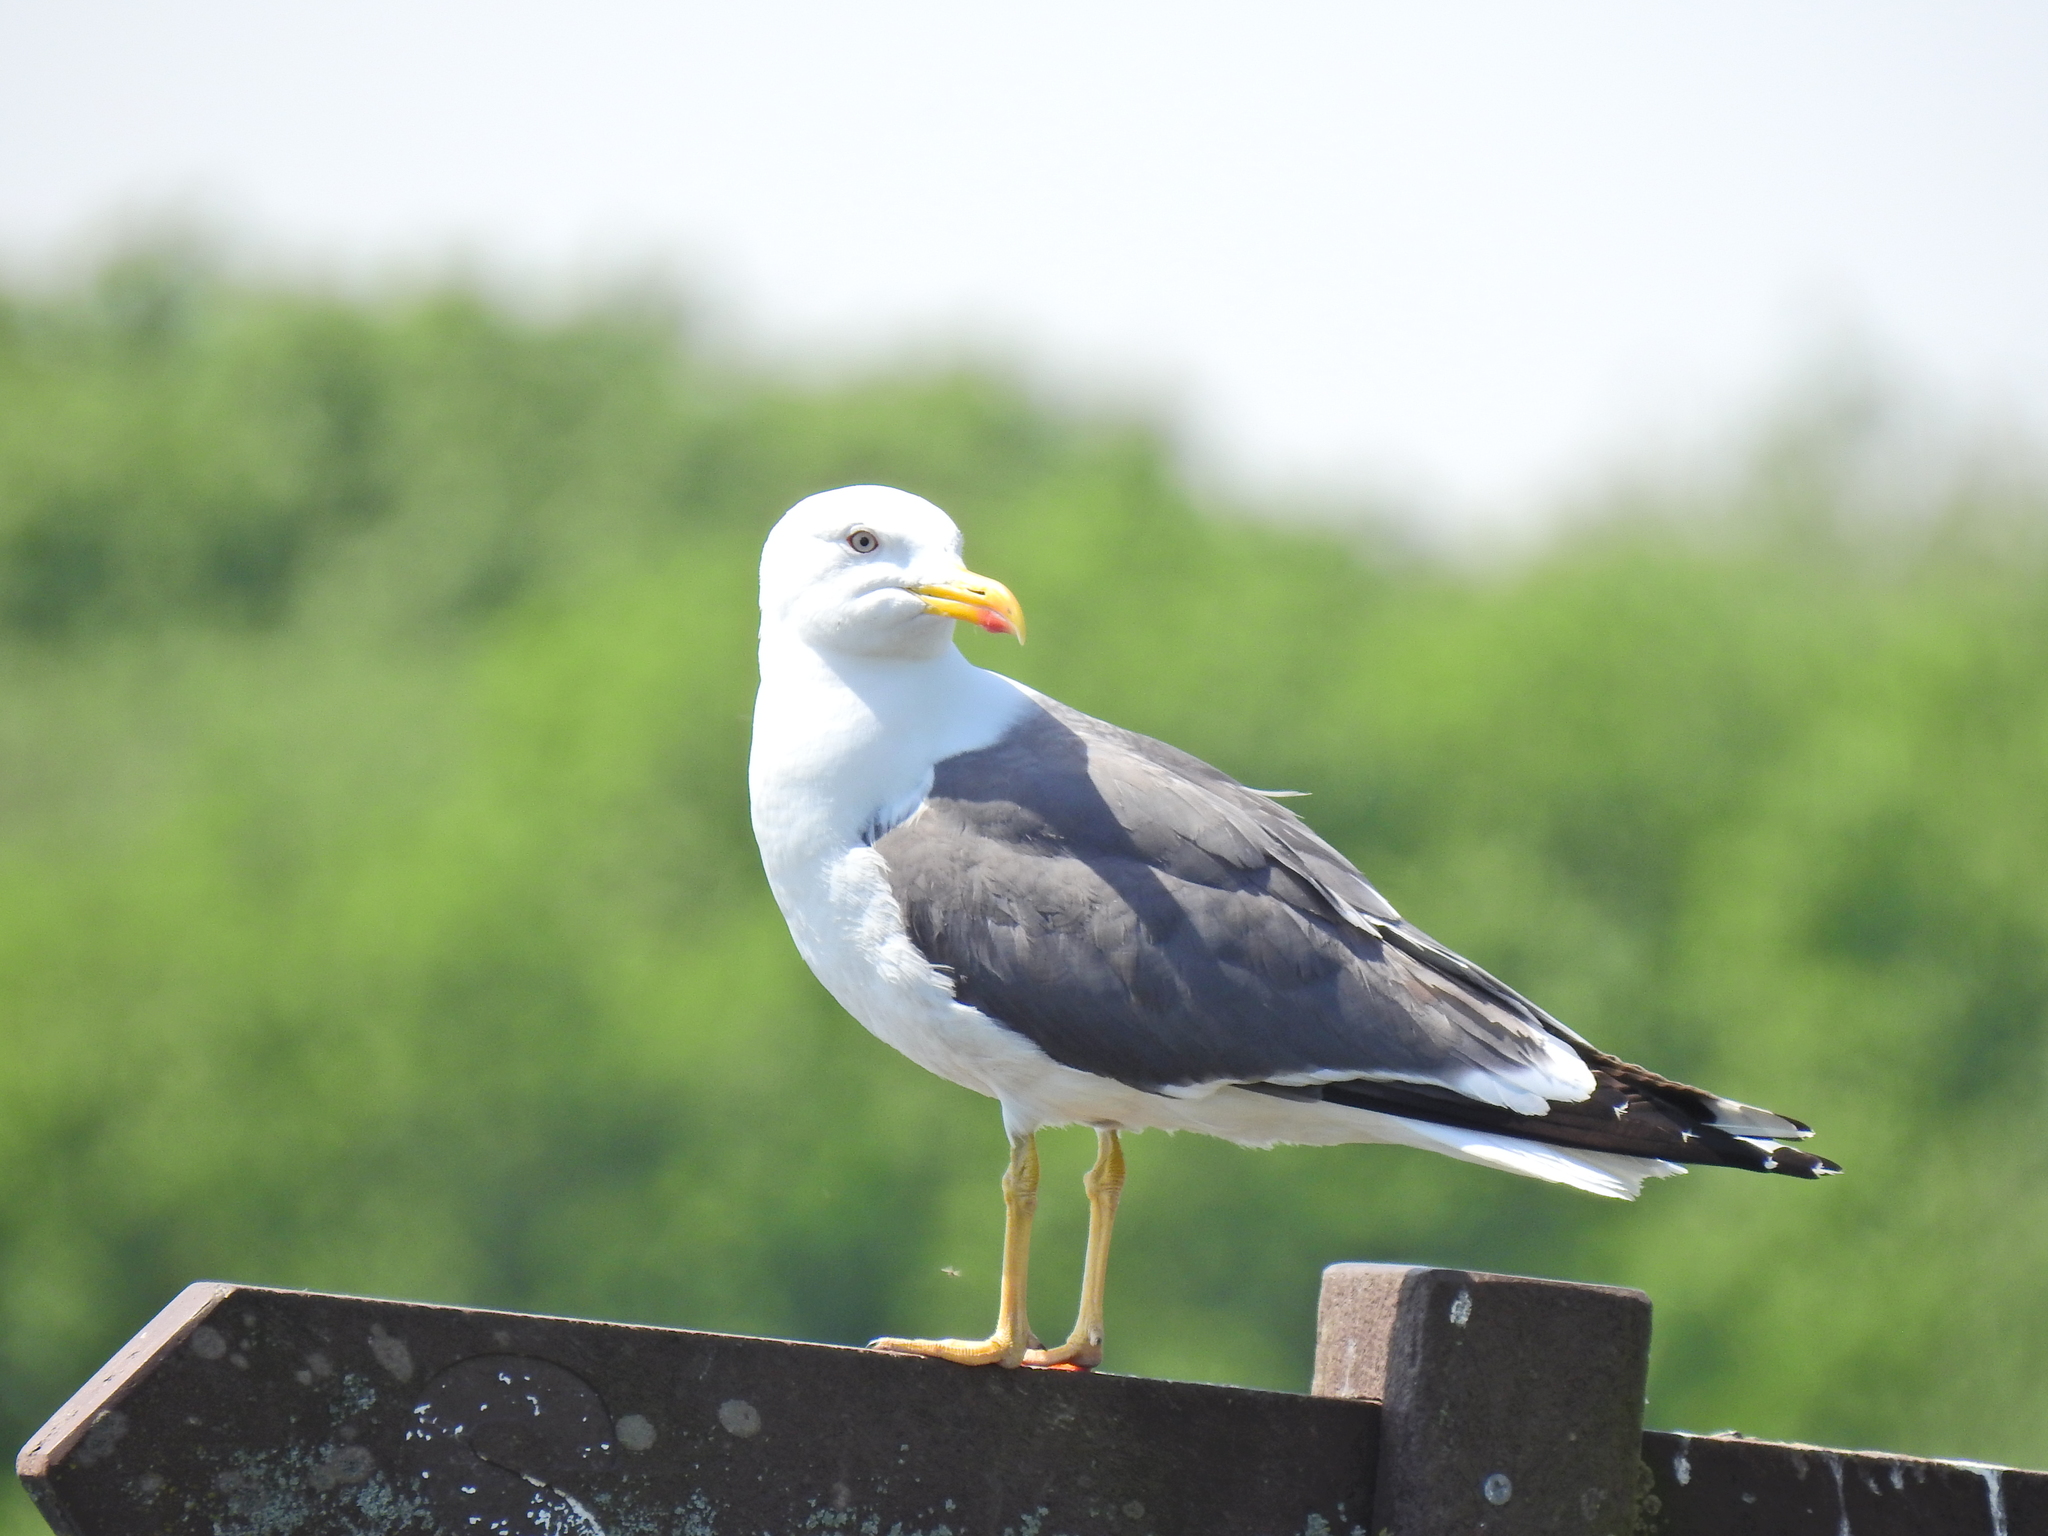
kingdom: Animalia
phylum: Chordata
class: Aves
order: Charadriiformes
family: Laridae
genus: Larus
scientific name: Larus fuscus
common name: Lesser black-backed gull
